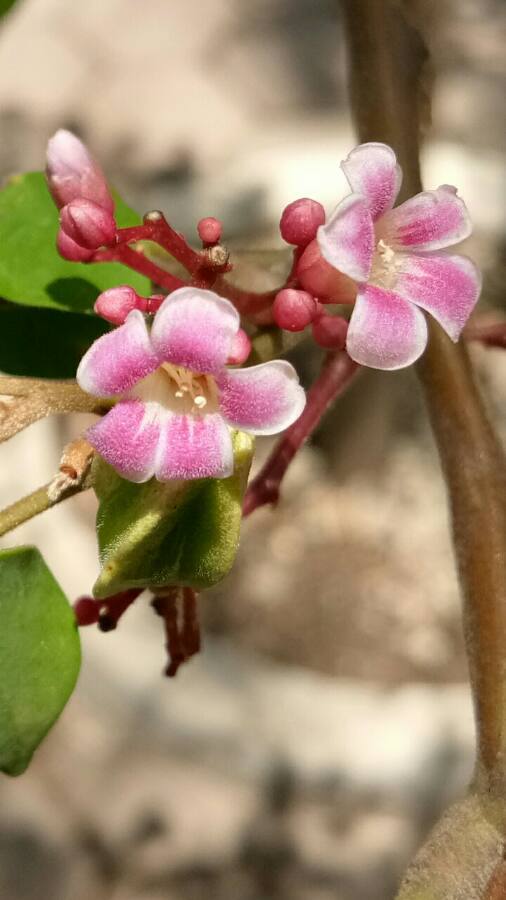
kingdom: Plantae
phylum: Tracheophyta
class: Magnoliopsida
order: Oxalidales
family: Oxalidaceae
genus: Averrhoa
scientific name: Averrhoa carambola
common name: Blimbing
